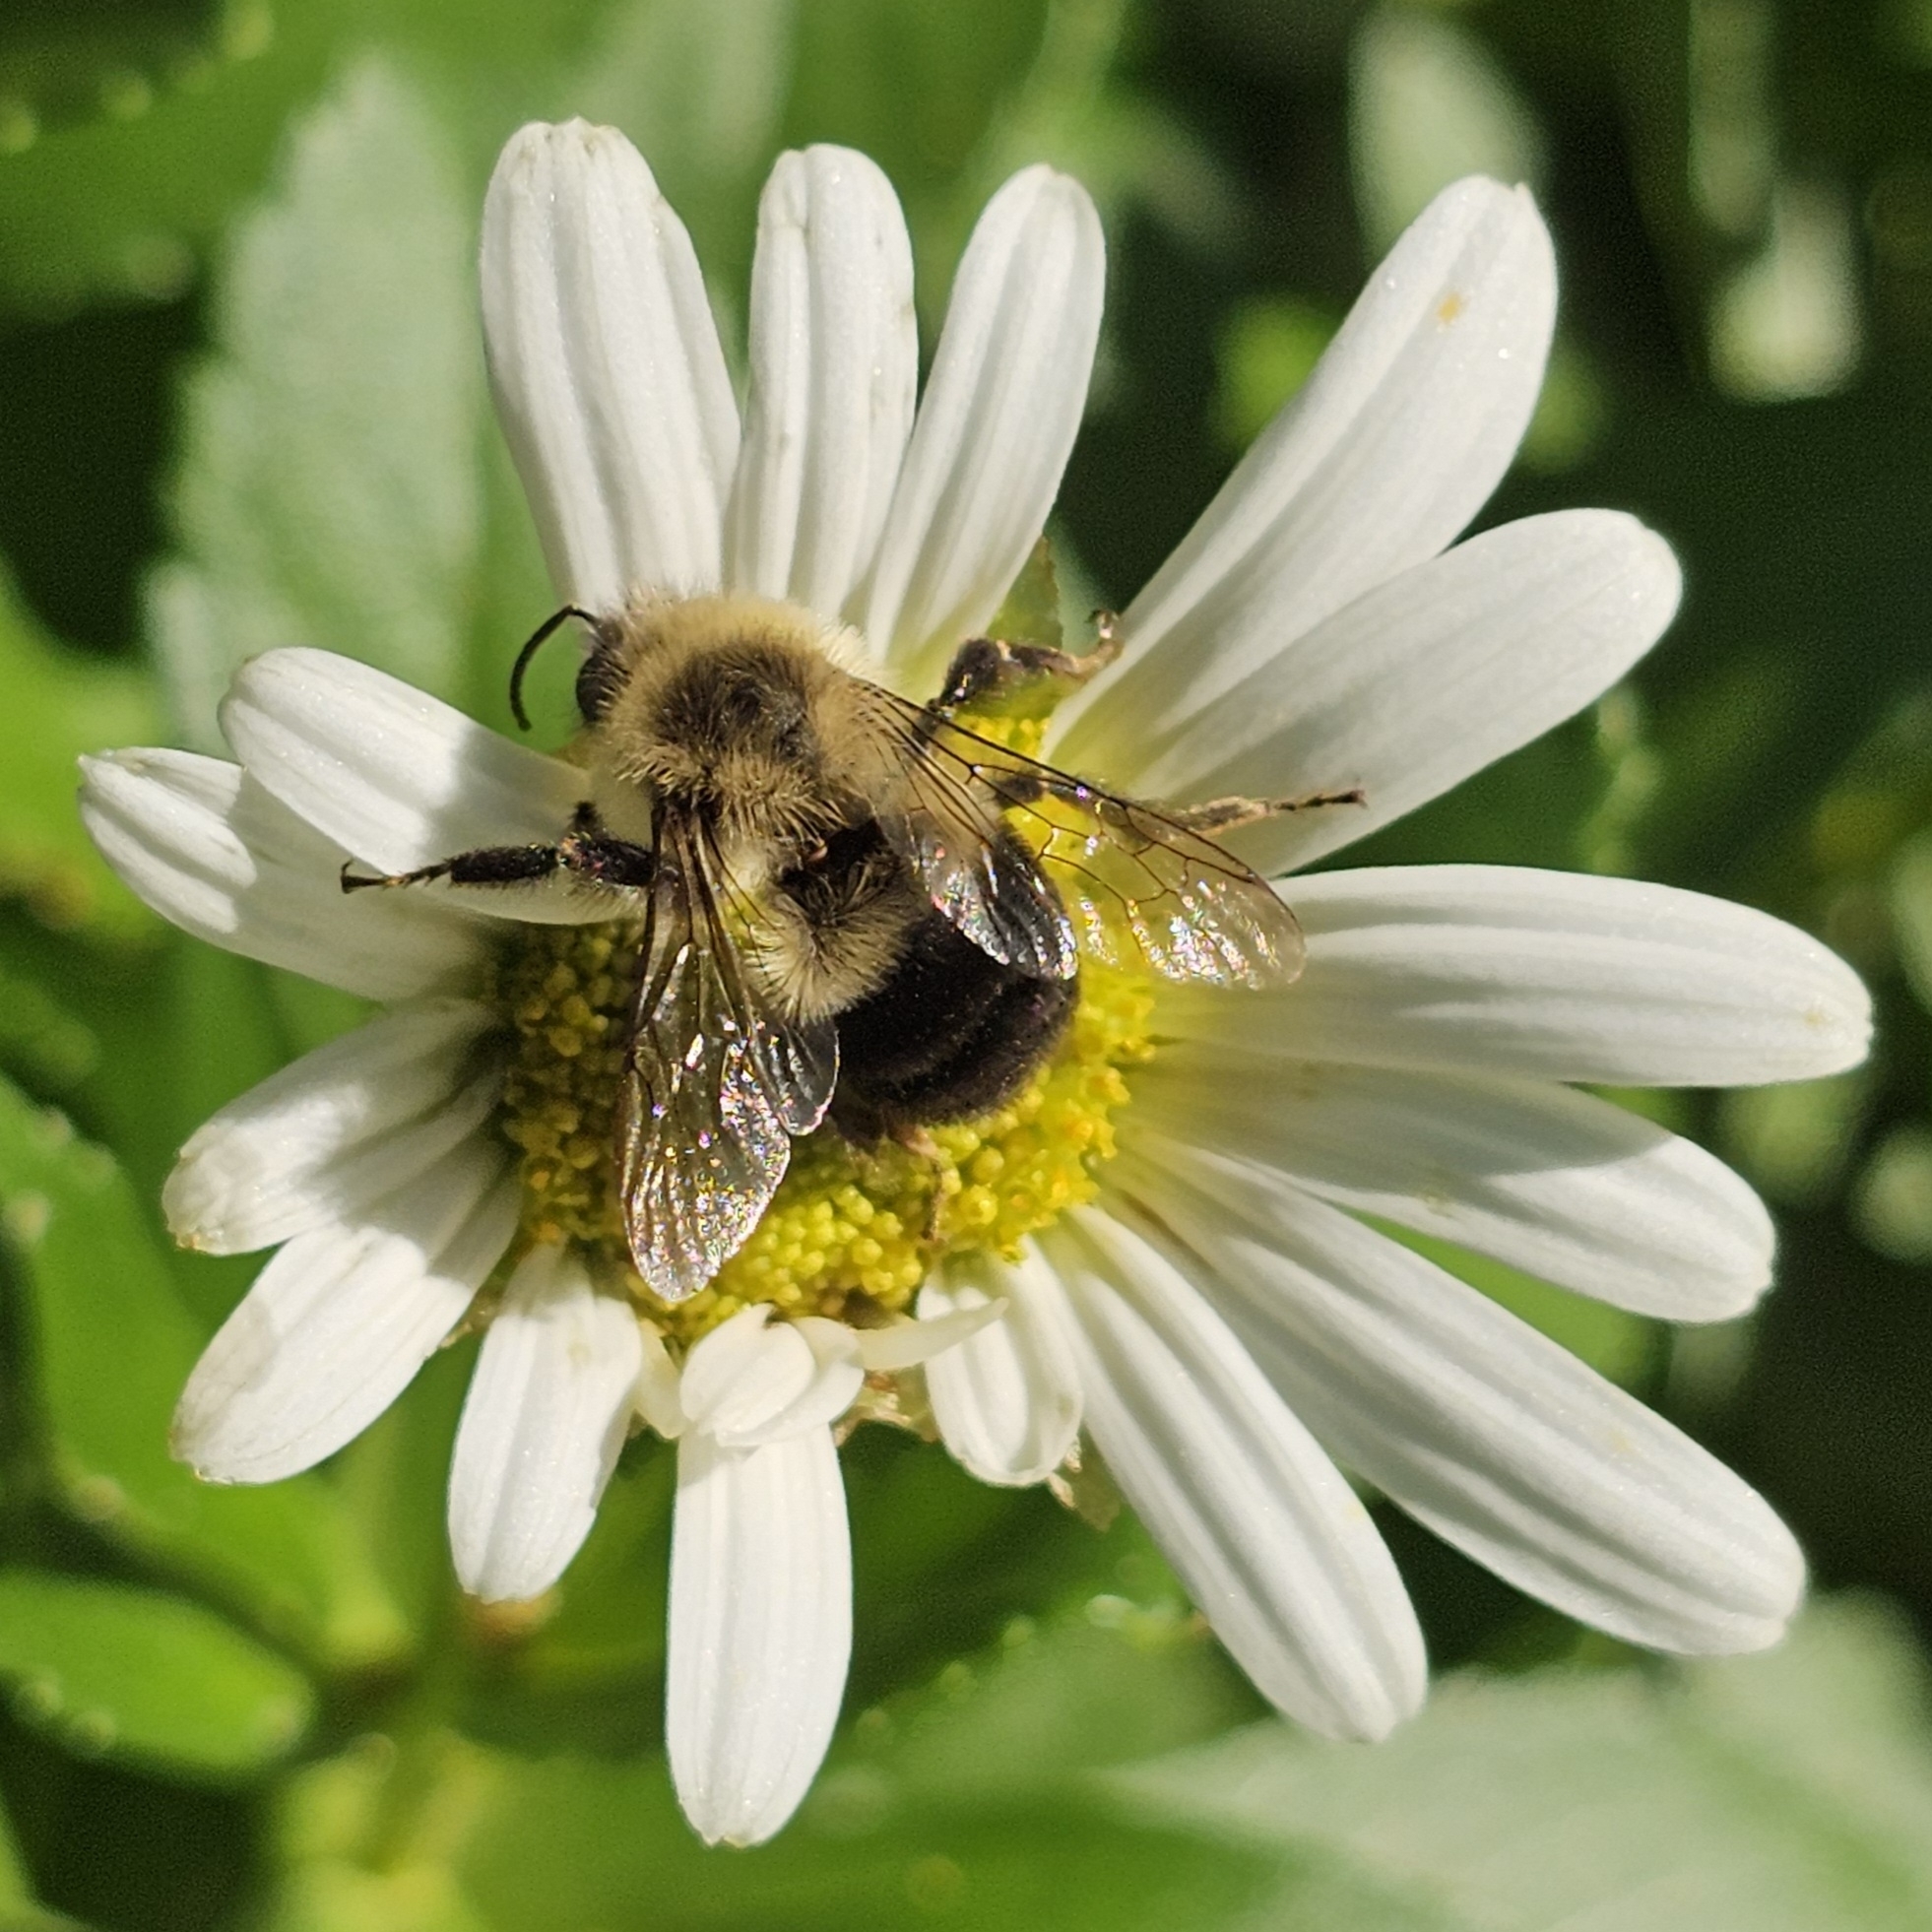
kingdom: Animalia
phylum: Arthropoda
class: Insecta
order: Hymenoptera
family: Apidae
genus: Bombus
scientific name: Bombus impatiens
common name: Common eastern bumble bee
